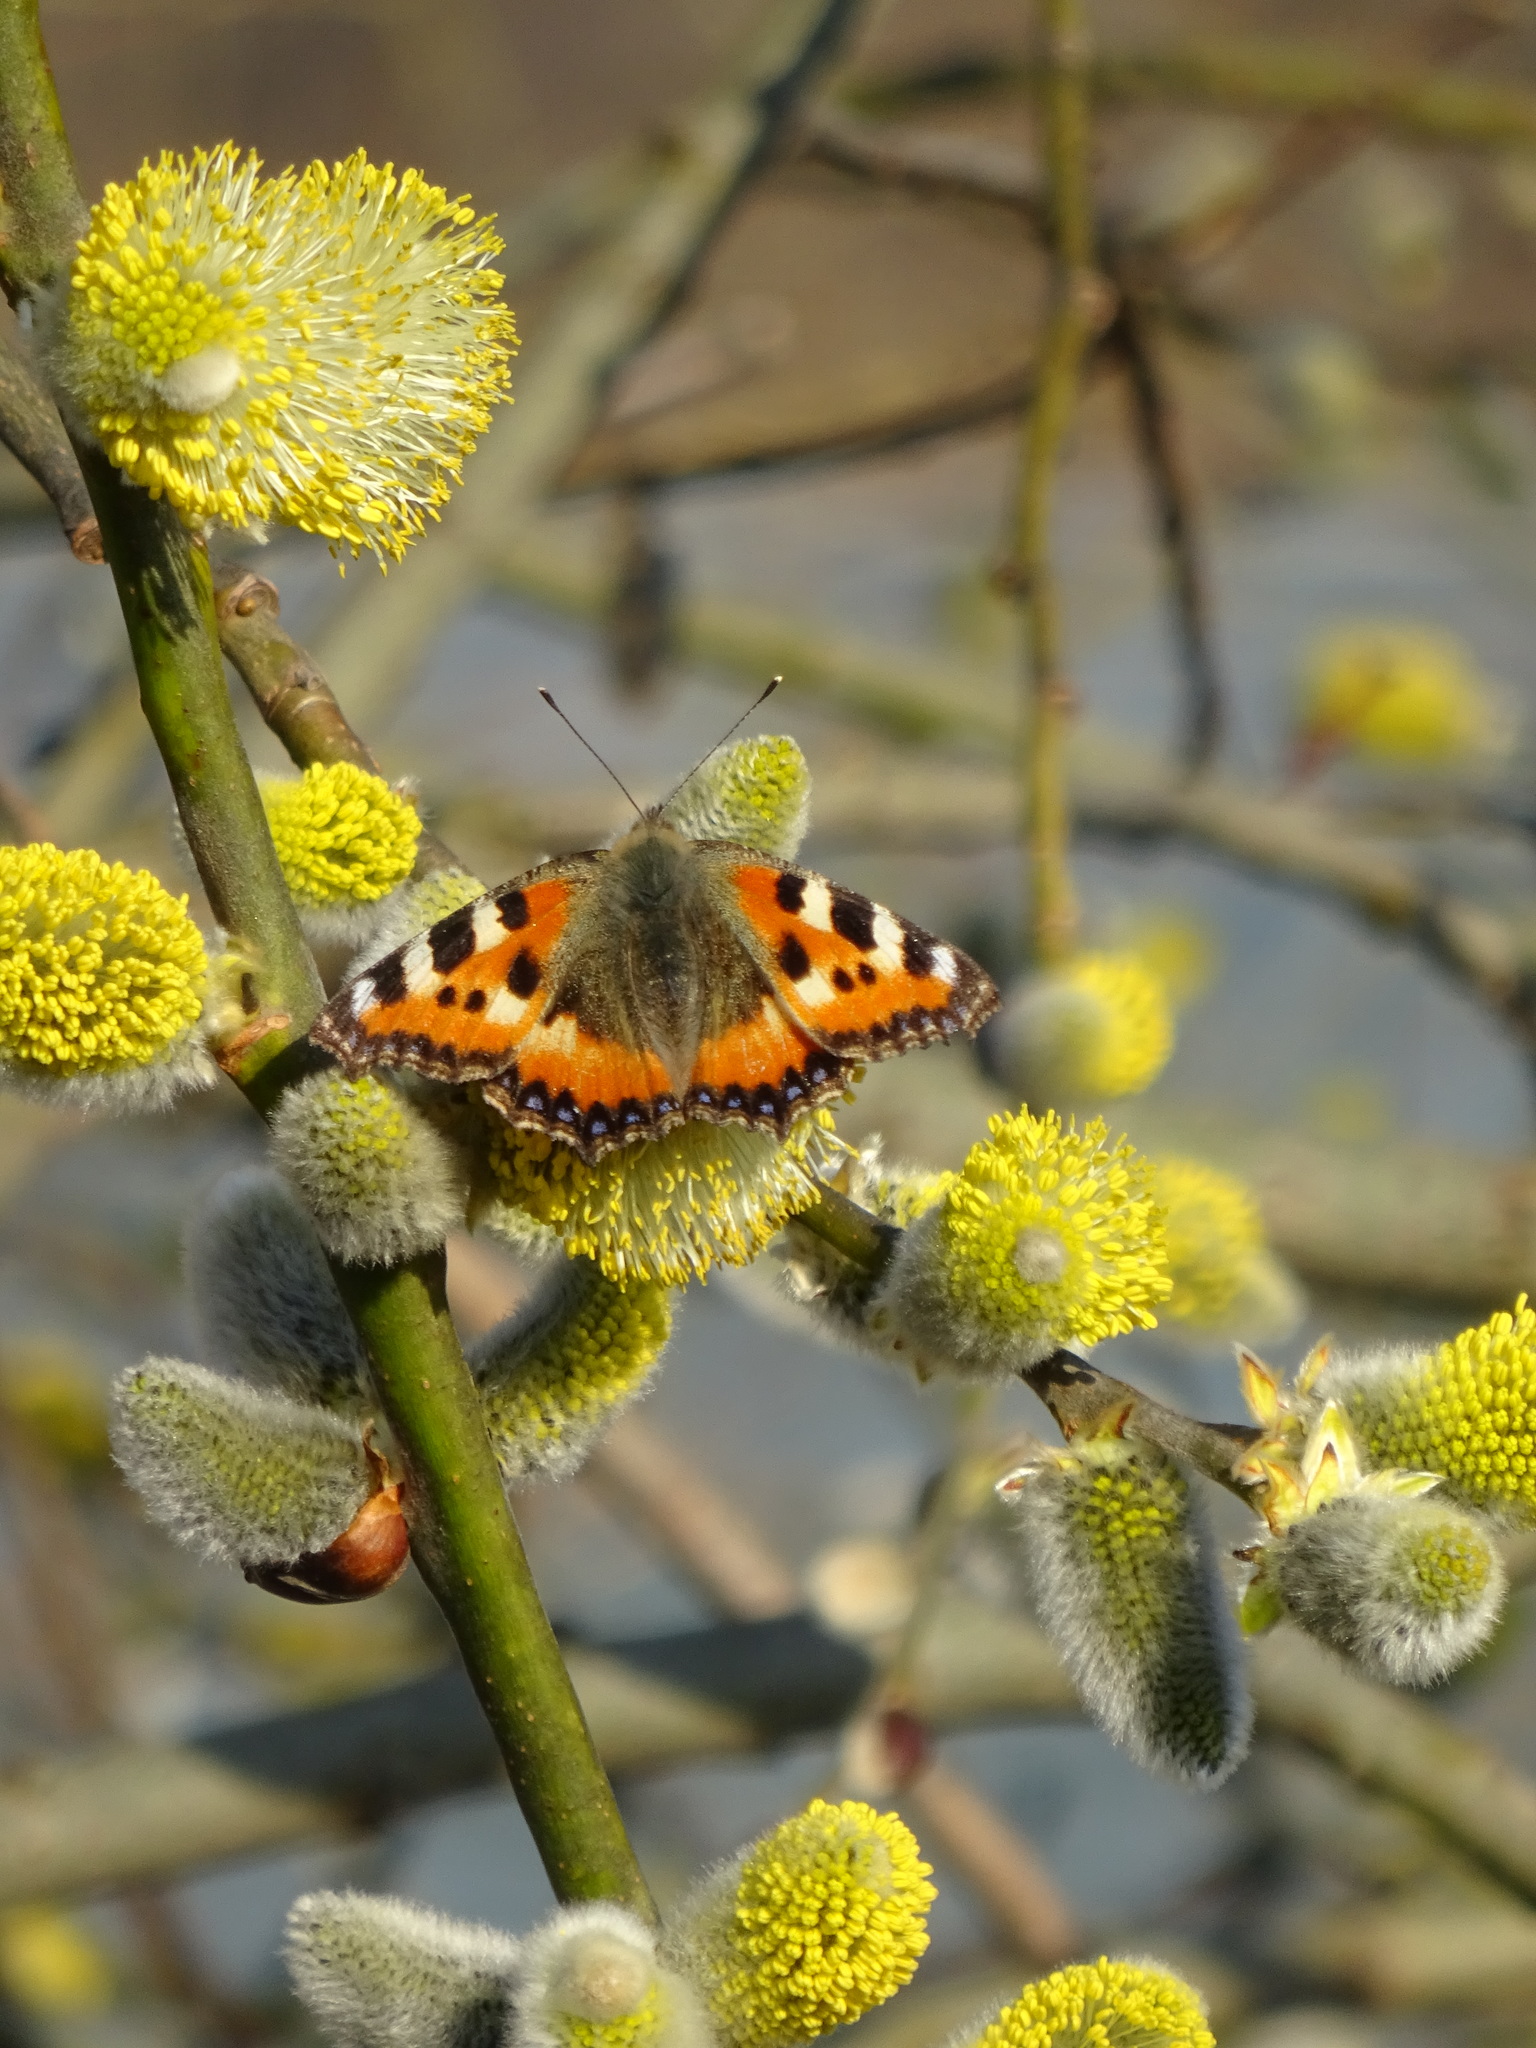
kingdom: Animalia
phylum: Arthropoda
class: Insecta
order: Lepidoptera
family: Nymphalidae
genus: Aglais
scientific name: Aglais urticae
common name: Small tortoiseshell
